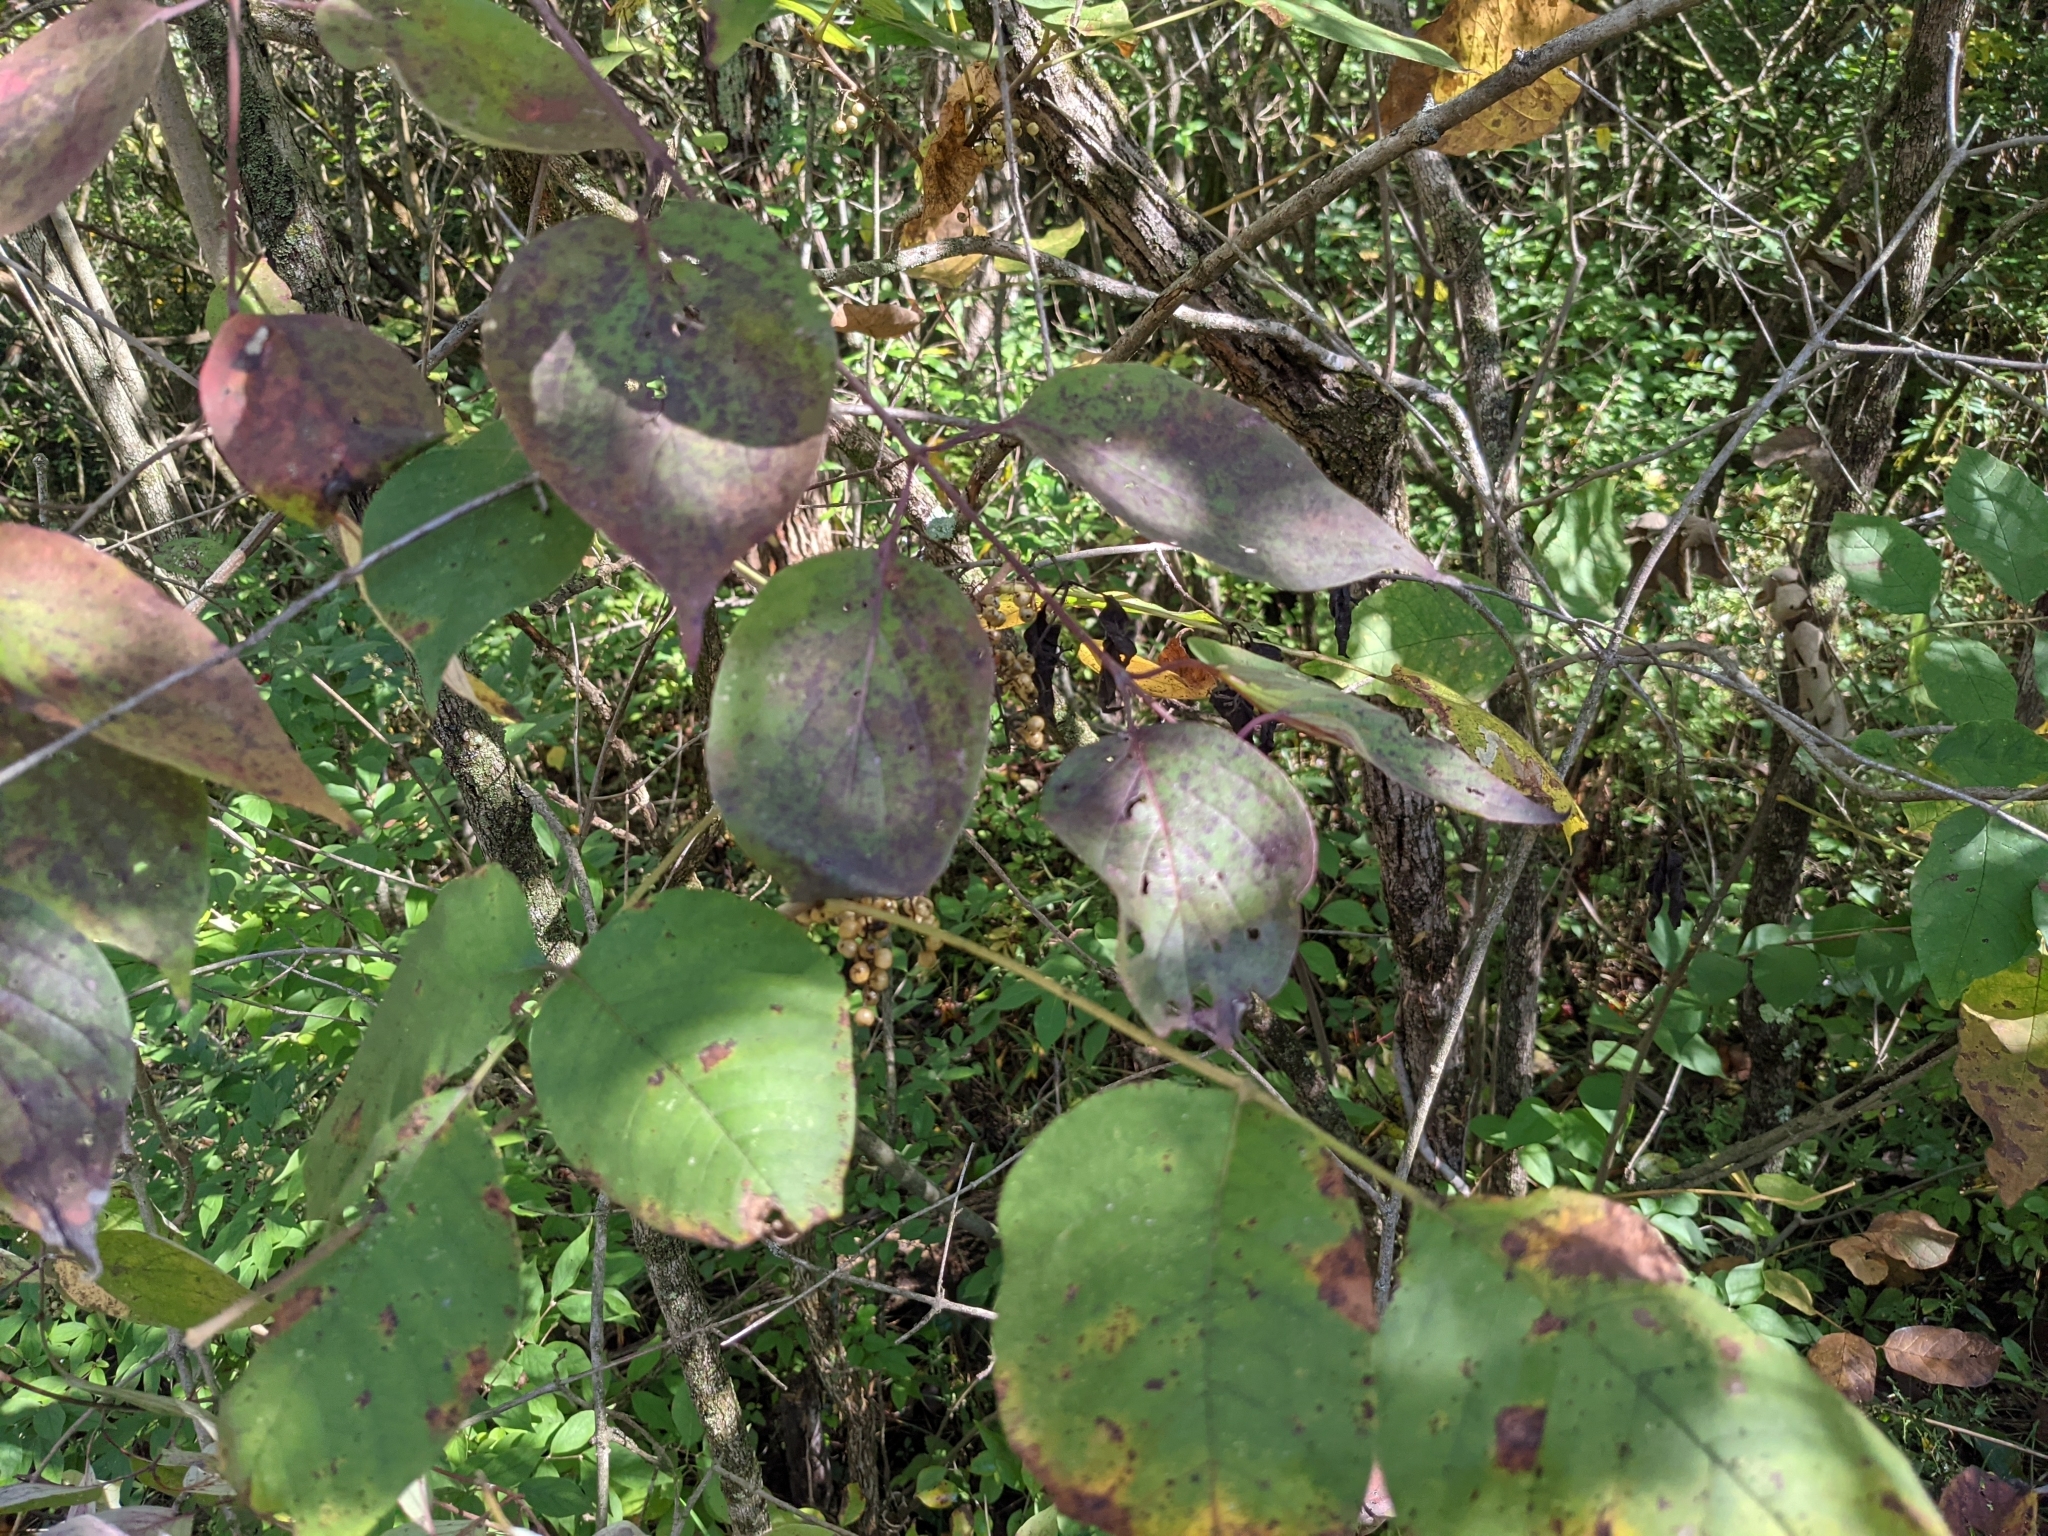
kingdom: Plantae
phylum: Tracheophyta
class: Magnoliopsida
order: Sapindales
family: Anacardiaceae
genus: Toxicodendron
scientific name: Toxicodendron radicans
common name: Poison ivy
